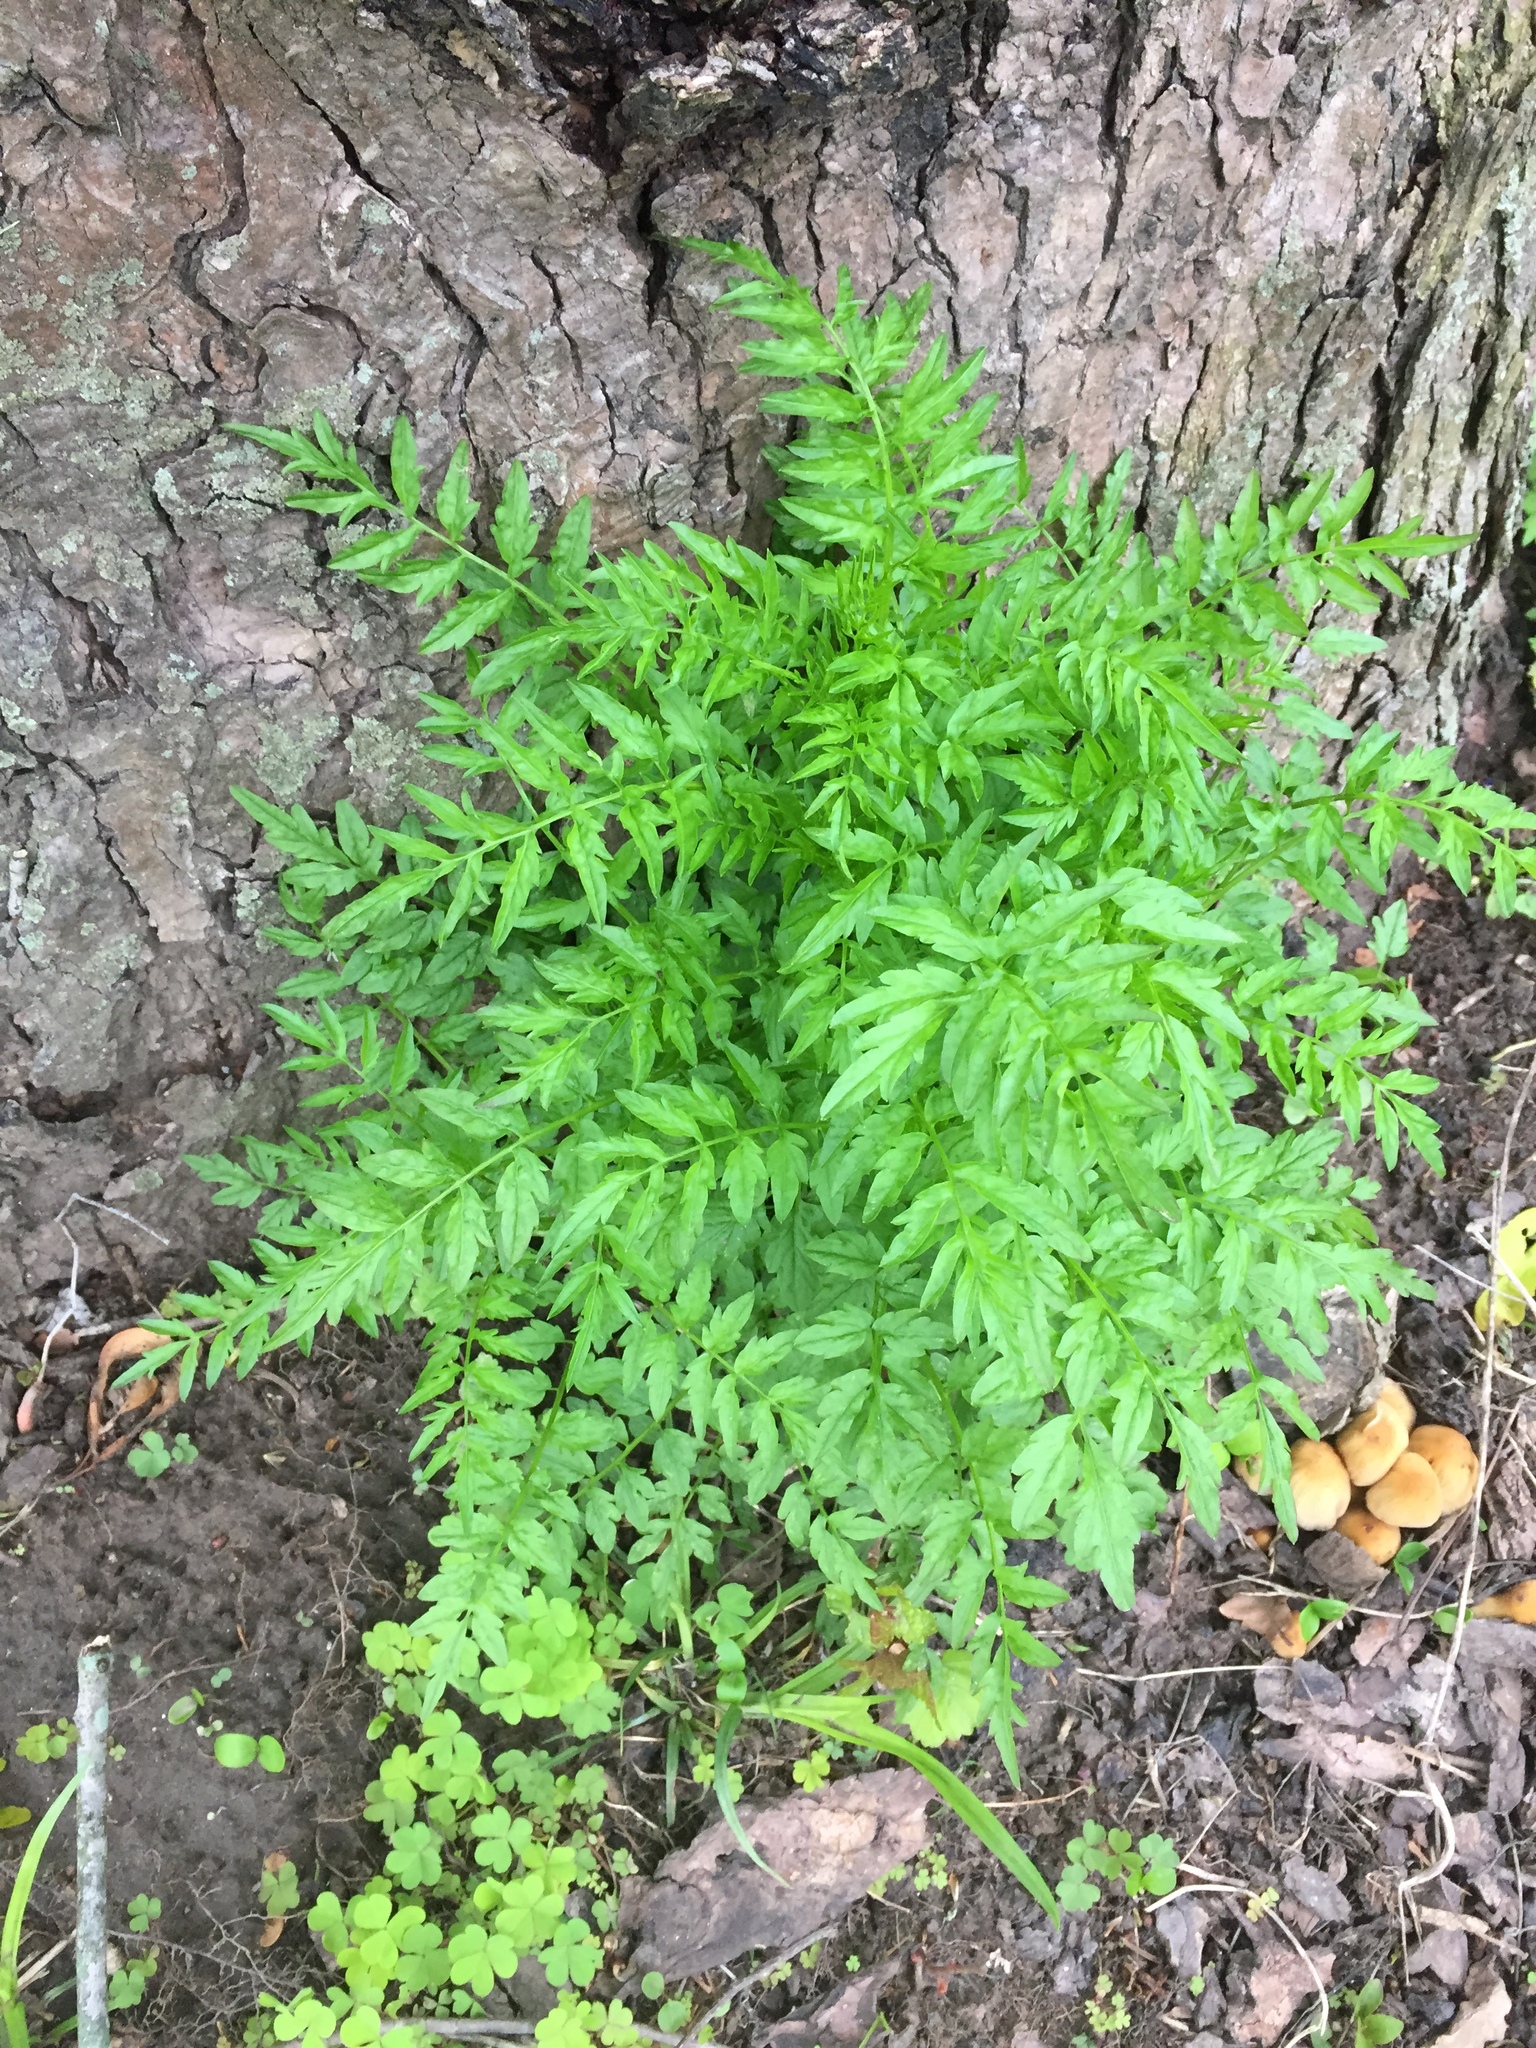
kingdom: Plantae
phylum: Tracheophyta
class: Magnoliopsida
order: Brassicales
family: Brassicaceae
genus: Cardamine
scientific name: Cardamine impatiens
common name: Narrow-leaved bitter-cress
